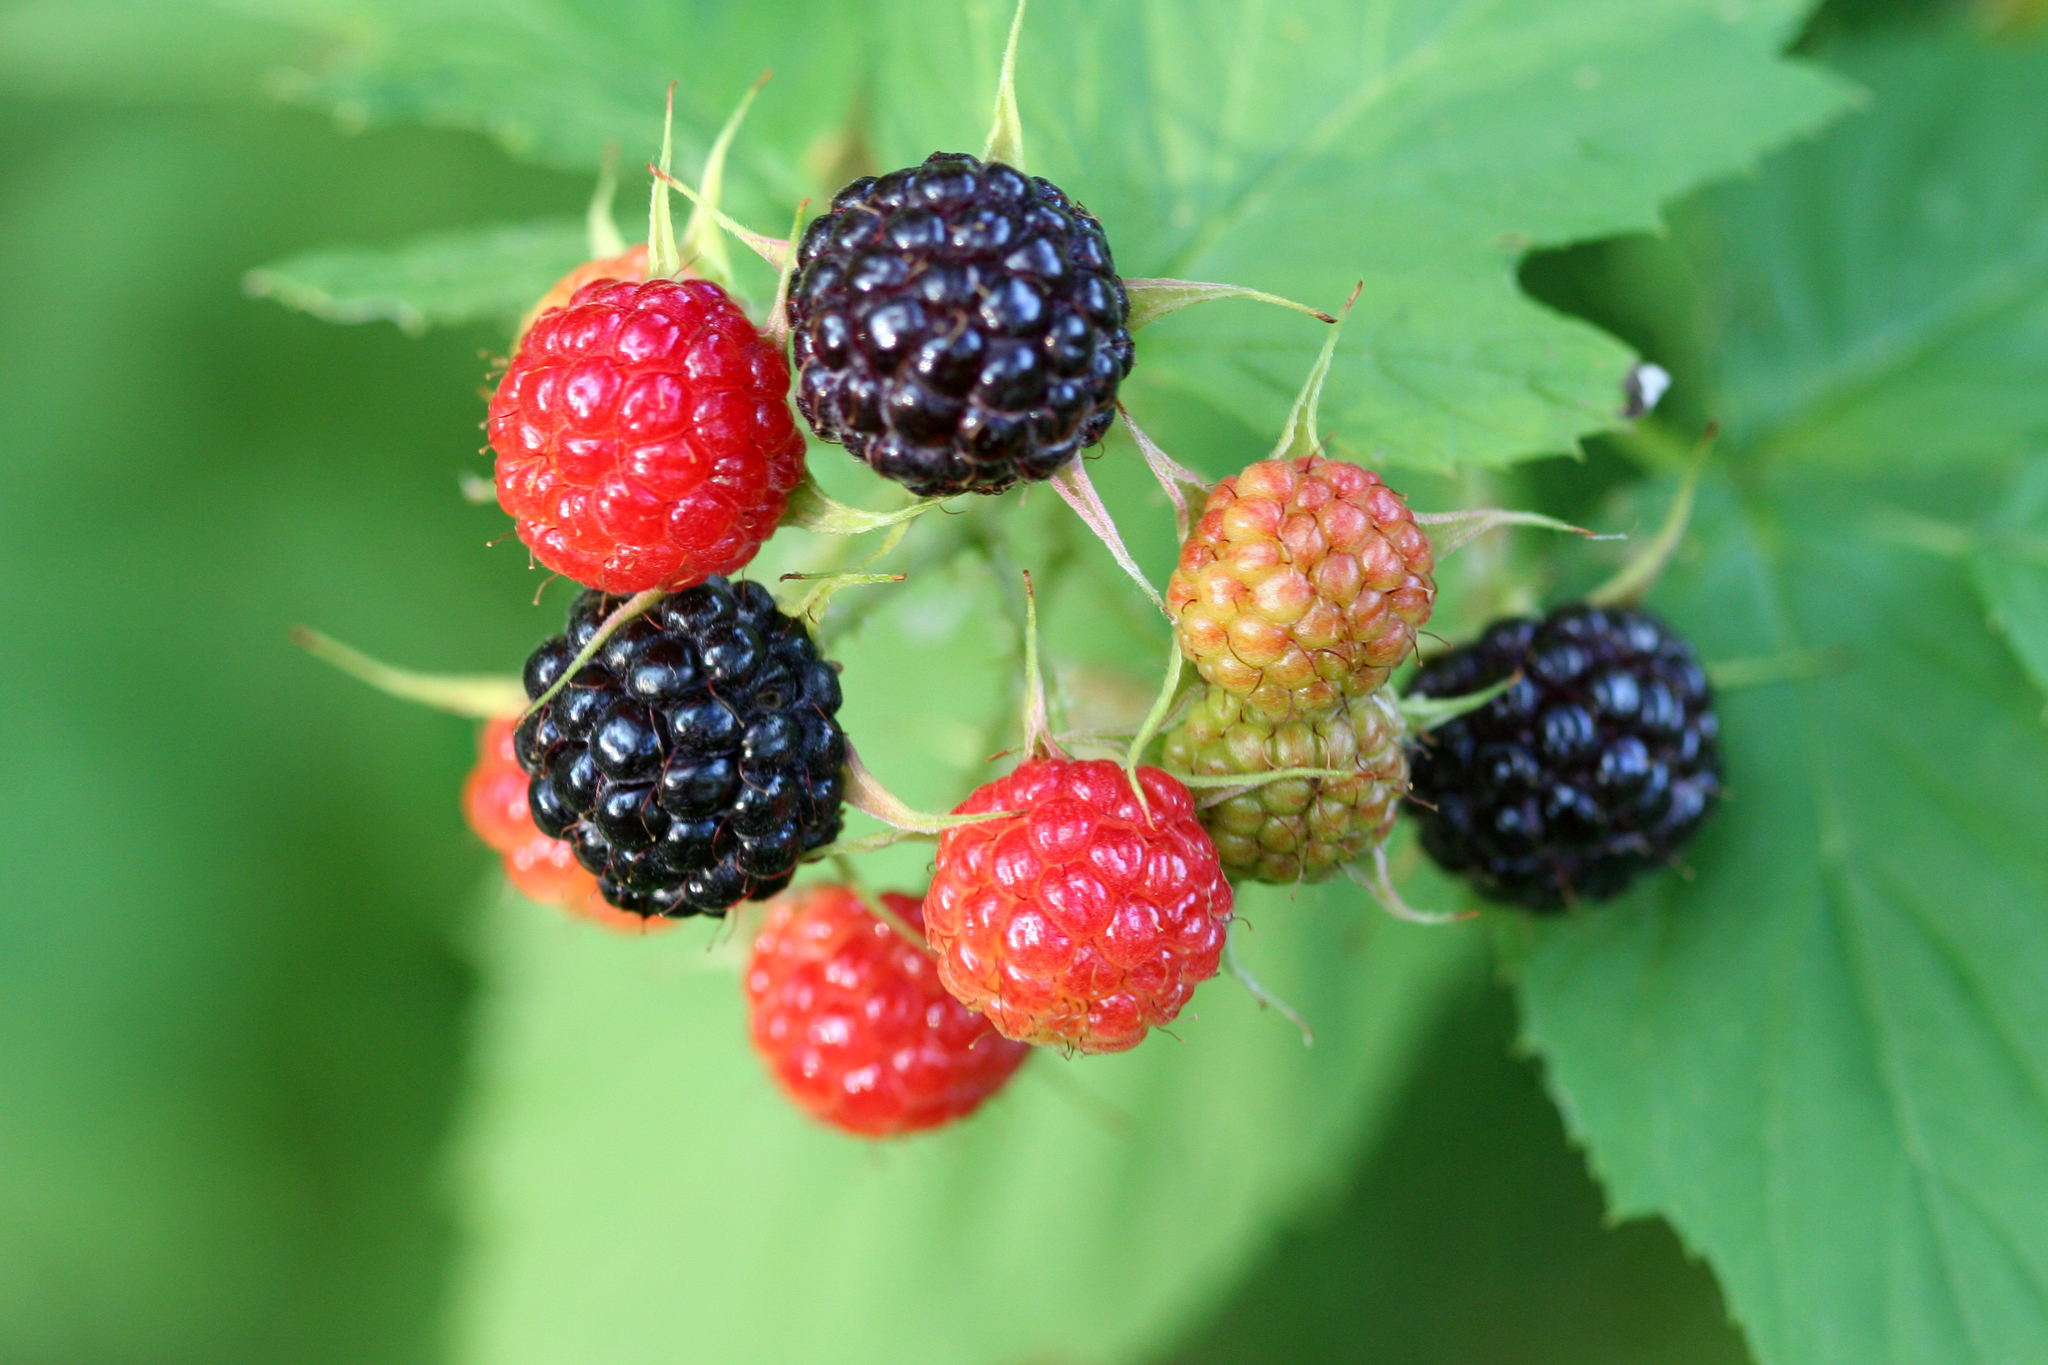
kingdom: Plantae
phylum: Tracheophyta
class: Magnoliopsida
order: Rosales
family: Rosaceae
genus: Rubus
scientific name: Rubus occidentalis
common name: Black raspberry
